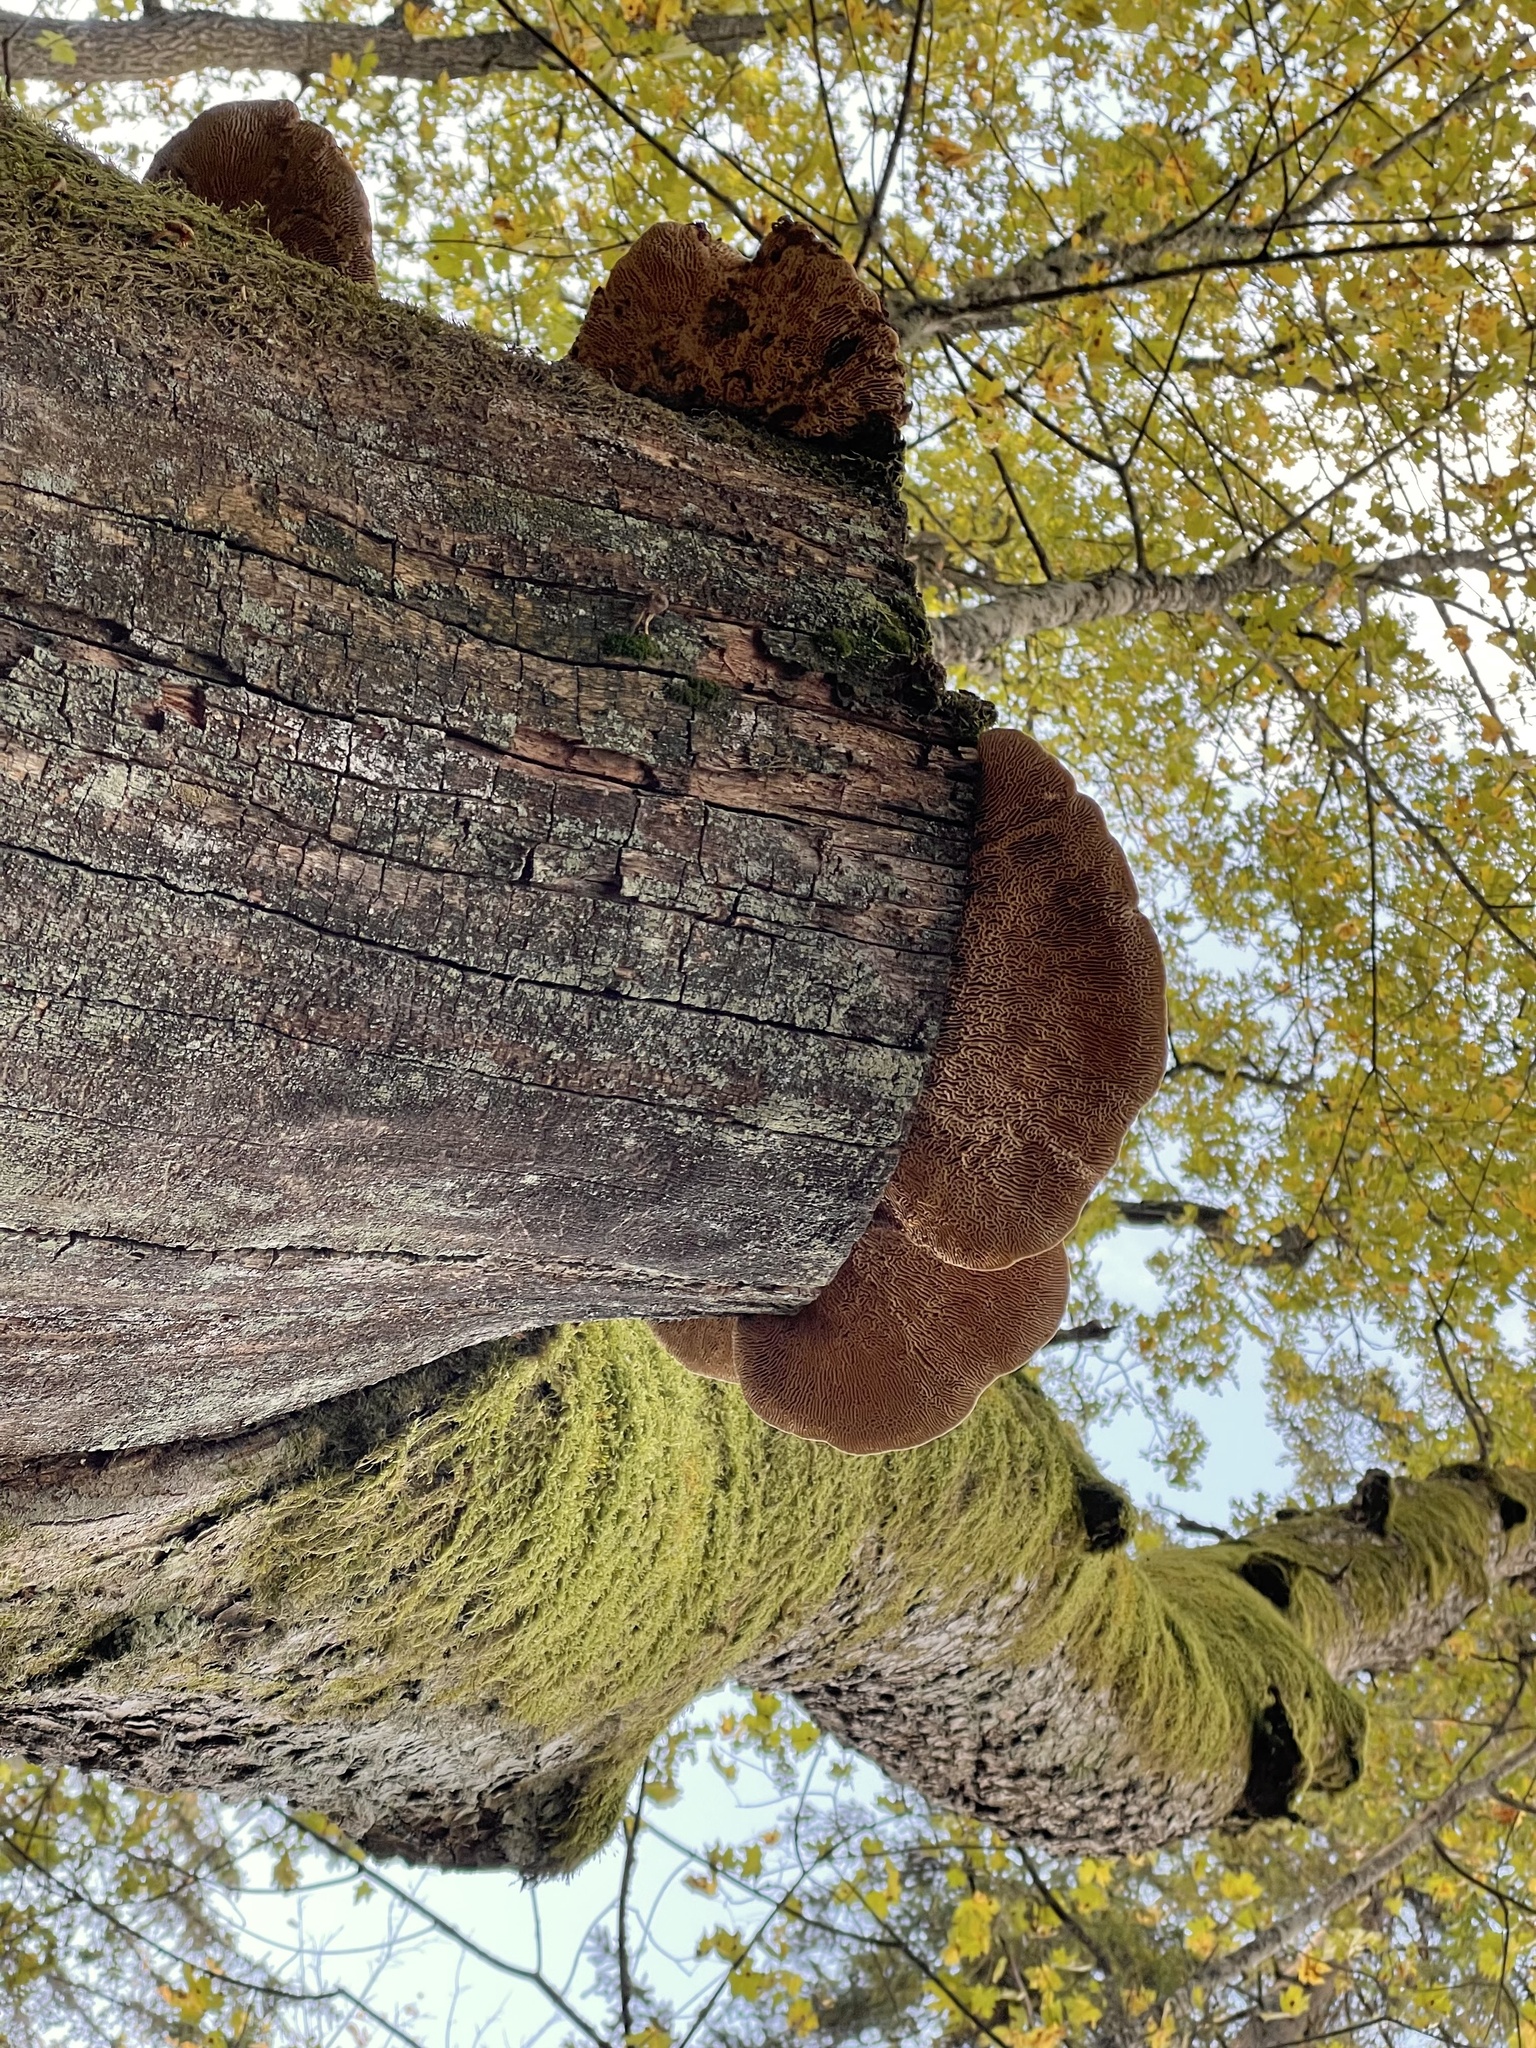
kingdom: Fungi
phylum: Basidiomycota
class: Agaricomycetes
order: Polyporales
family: Fomitopsidaceae
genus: Fomitopsis
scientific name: Fomitopsis
